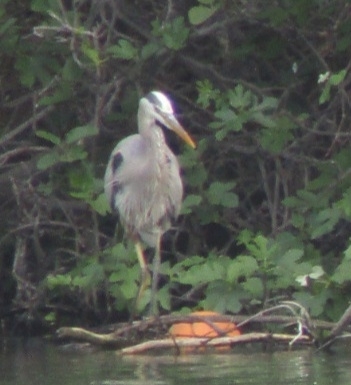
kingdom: Animalia
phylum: Chordata
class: Aves
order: Pelecaniformes
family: Ardeidae
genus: Ardea
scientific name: Ardea herodias
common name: Great blue heron
